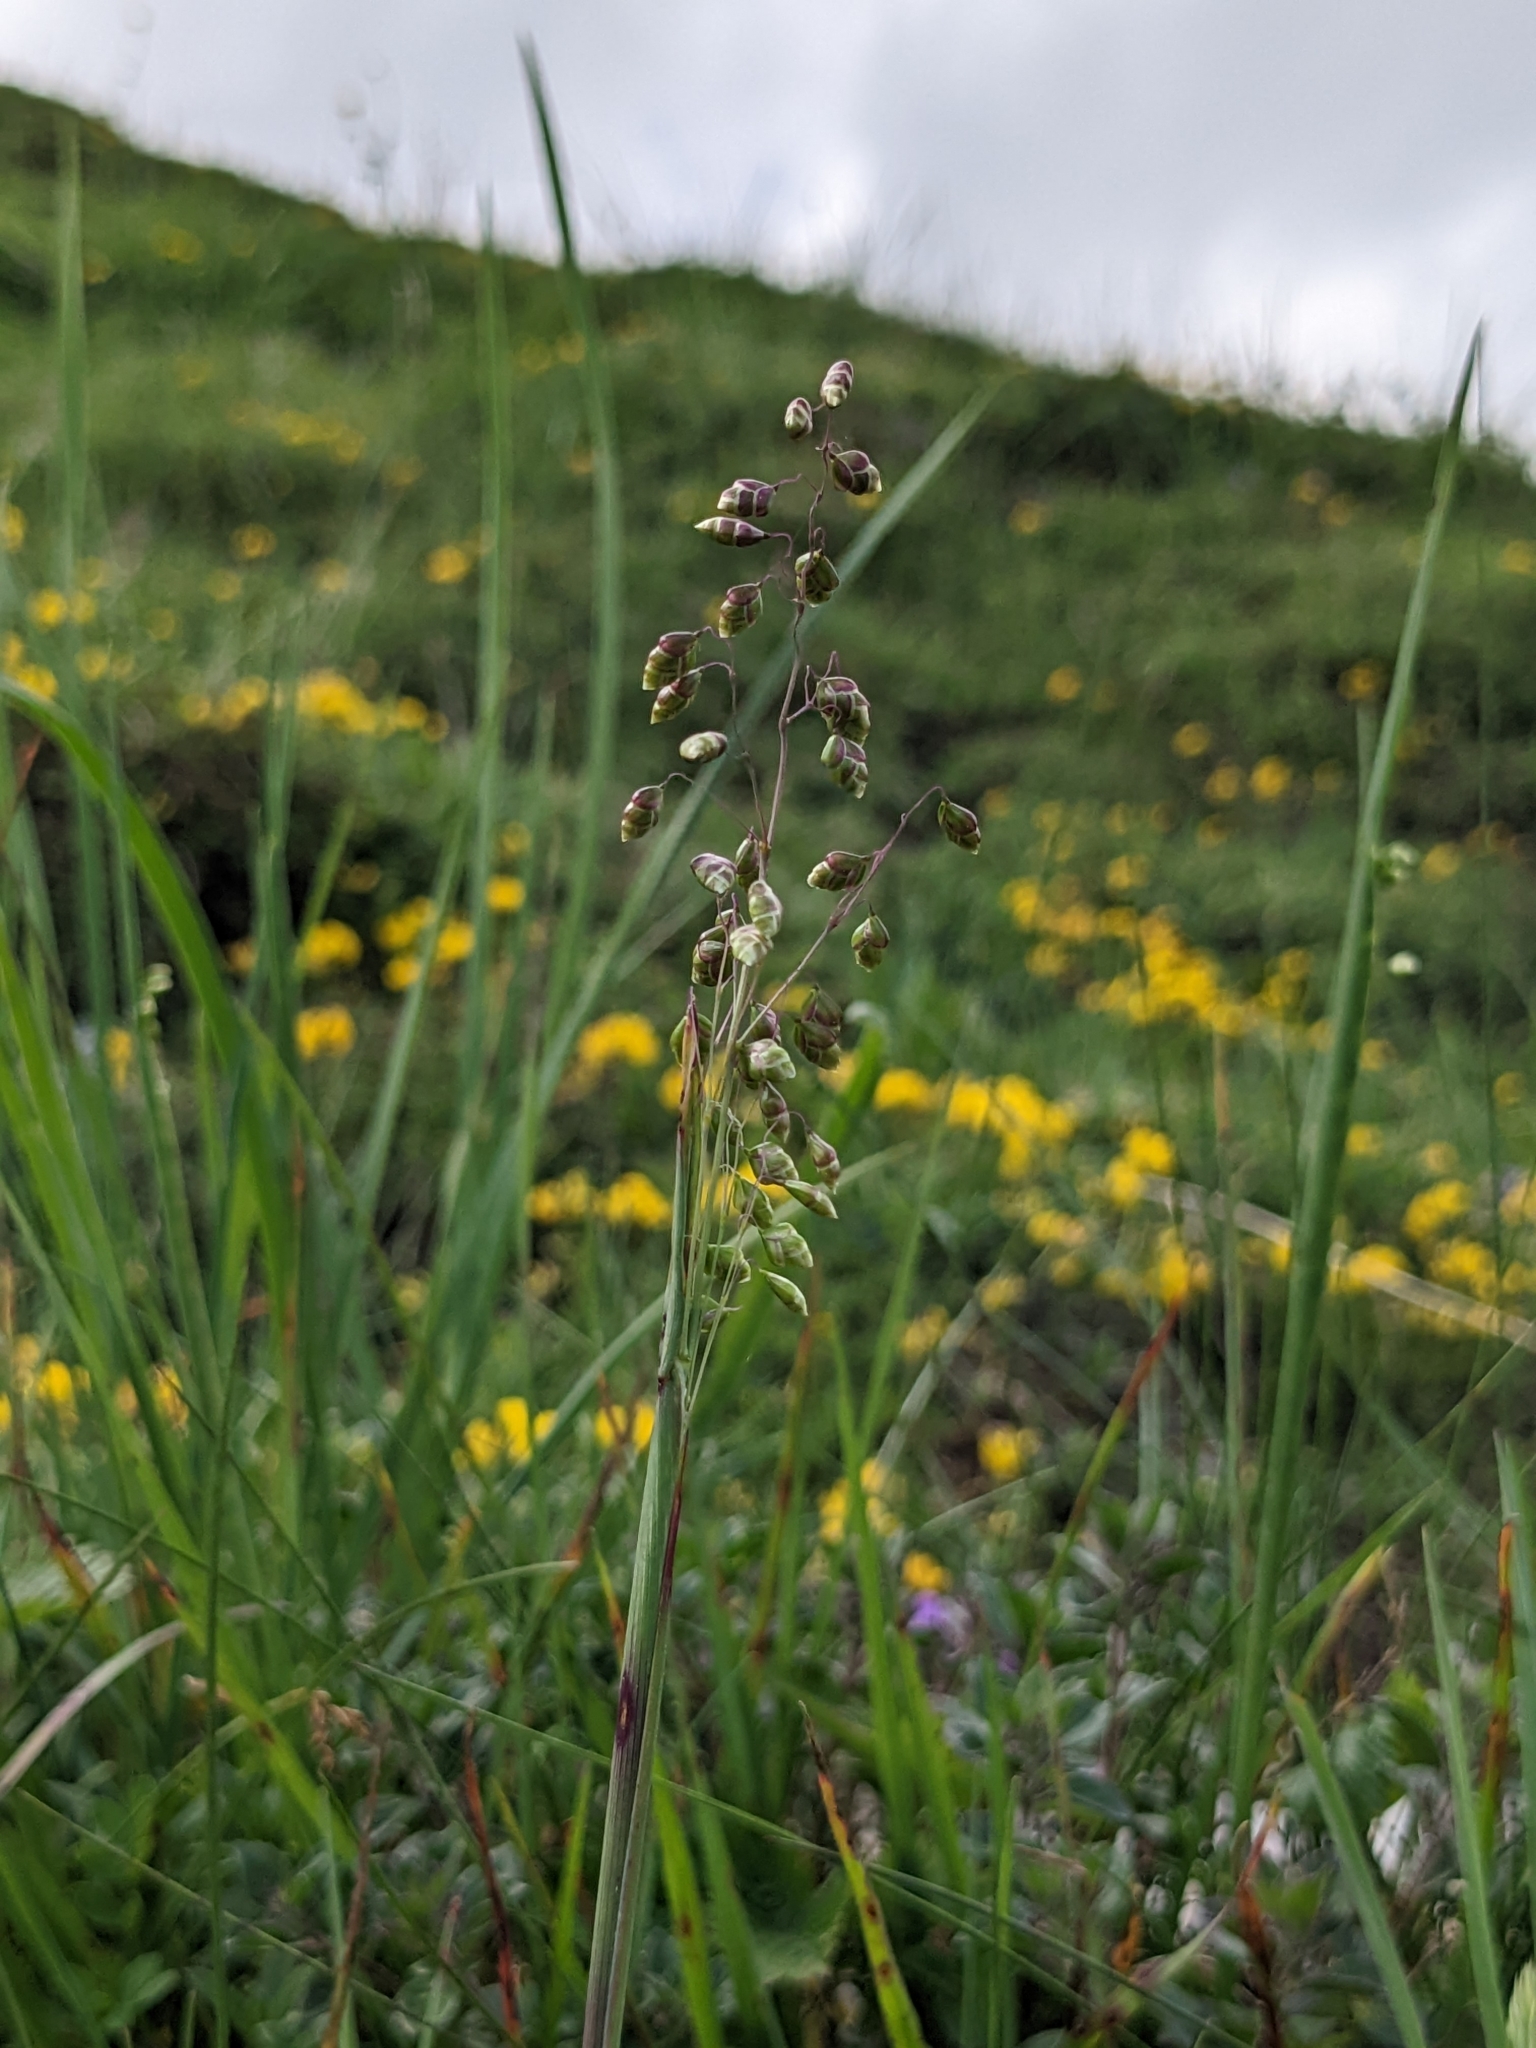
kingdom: Plantae
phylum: Tracheophyta
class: Liliopsida
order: Poales
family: Poaceae
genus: Briza
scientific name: Briza media
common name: Quaking grass
